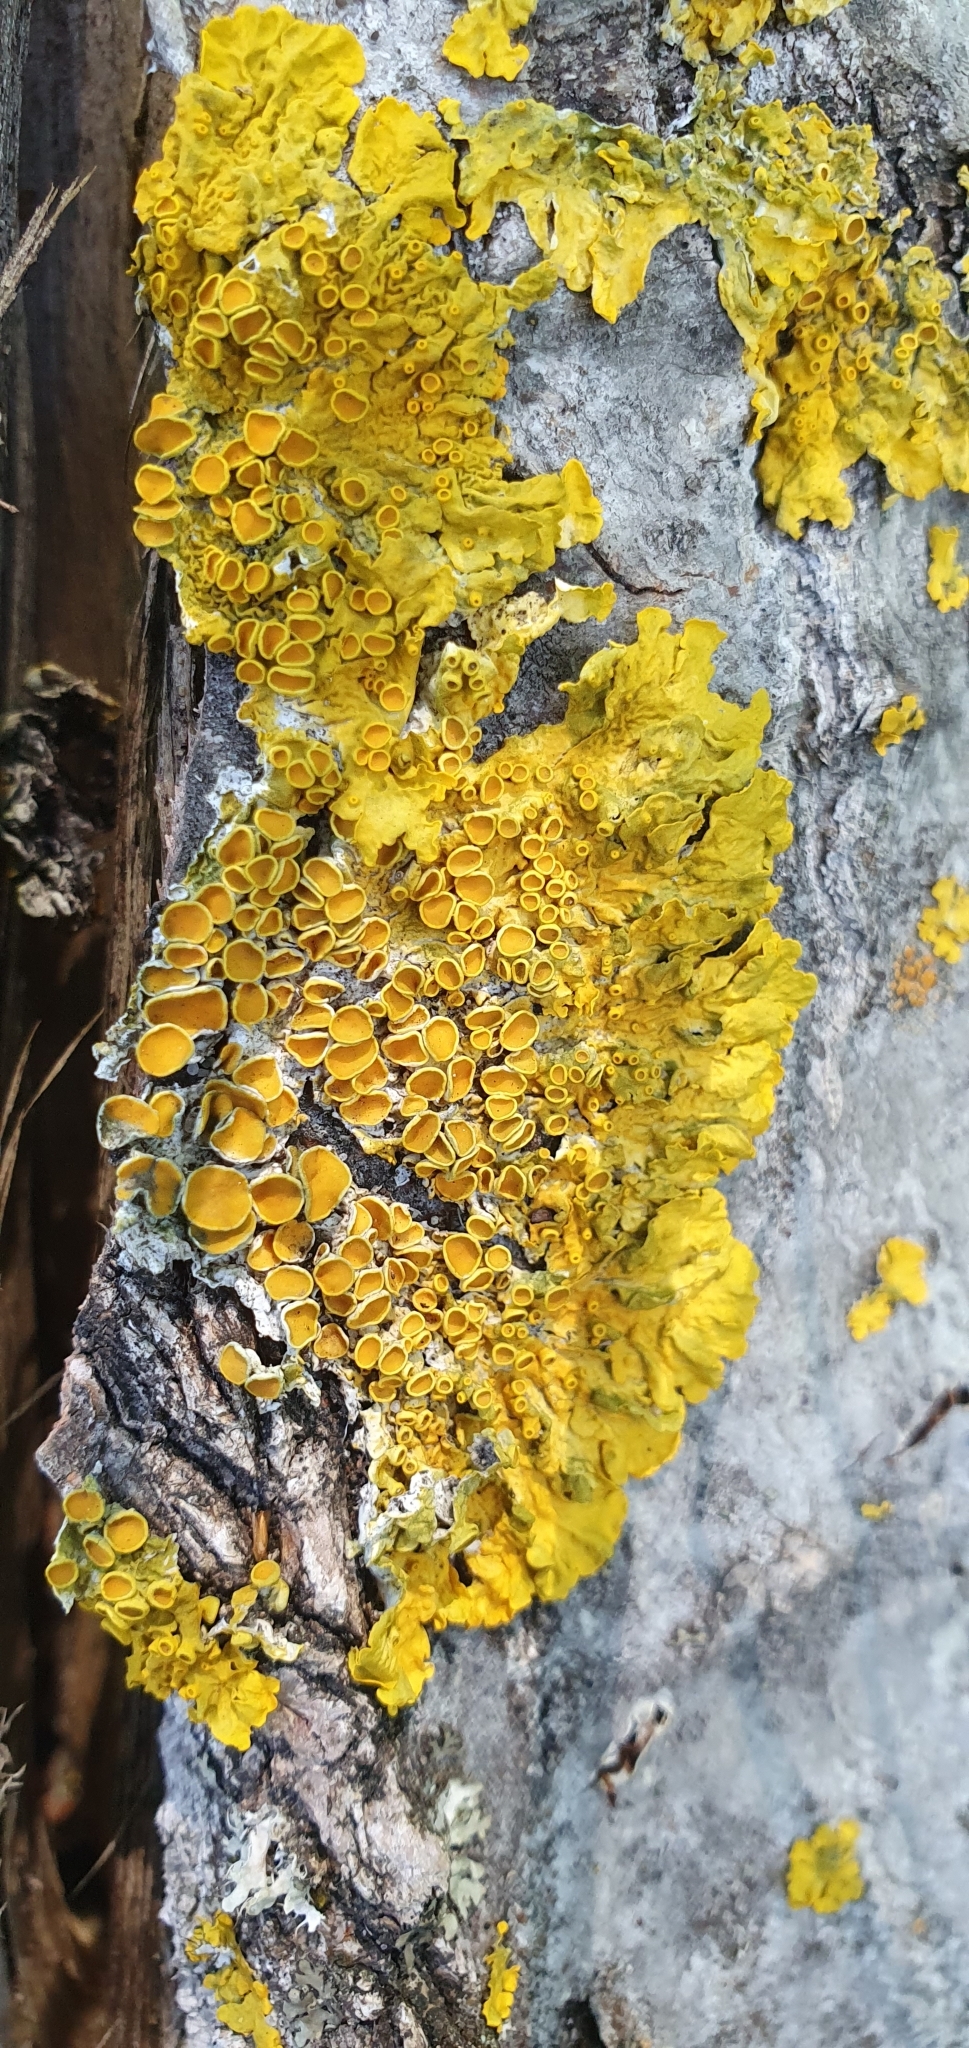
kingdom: Fungi
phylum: Ascomycota
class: Lecanoromycetes
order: Teloschistales
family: Teloschistaceae
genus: Xanthoria
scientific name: Xanthoria parietina
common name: Common orange lichen
